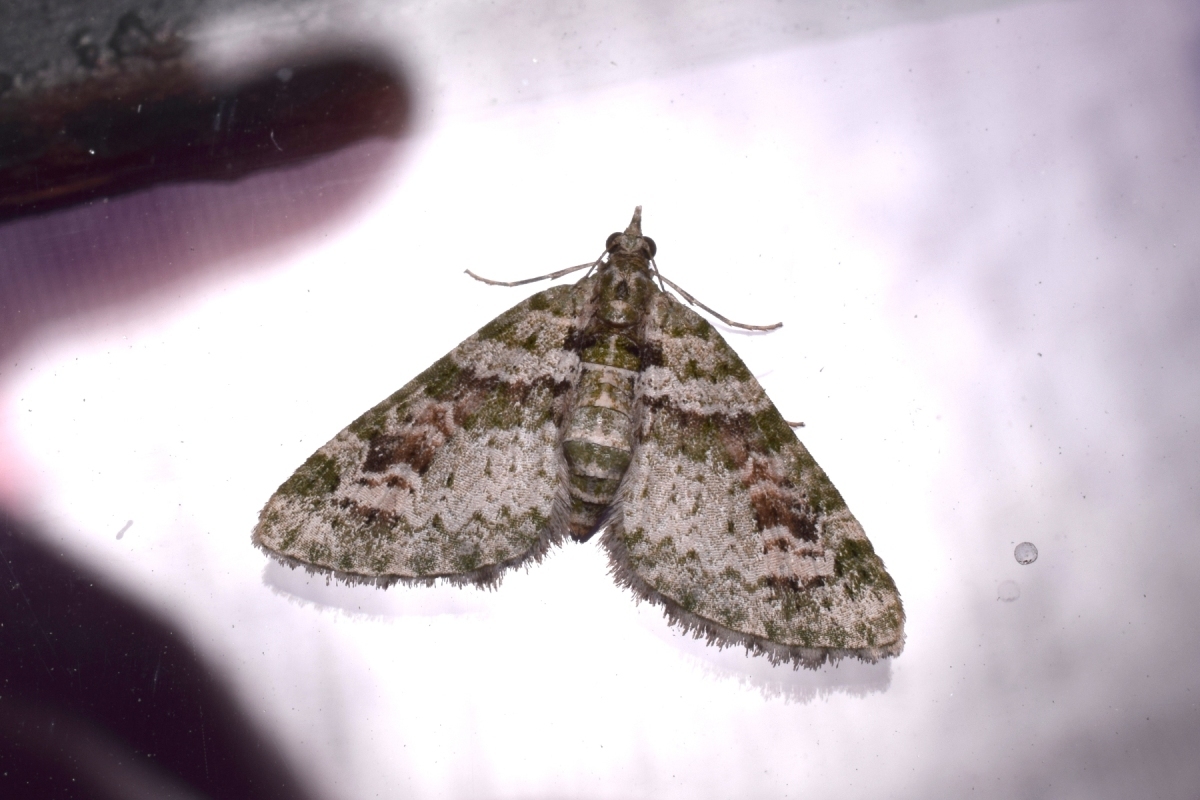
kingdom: Animalia
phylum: Arthropoda
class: Insecta
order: Lepidoptera
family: Geometridae
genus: Chloroclystis
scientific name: Chloroclystis rubroviridis
